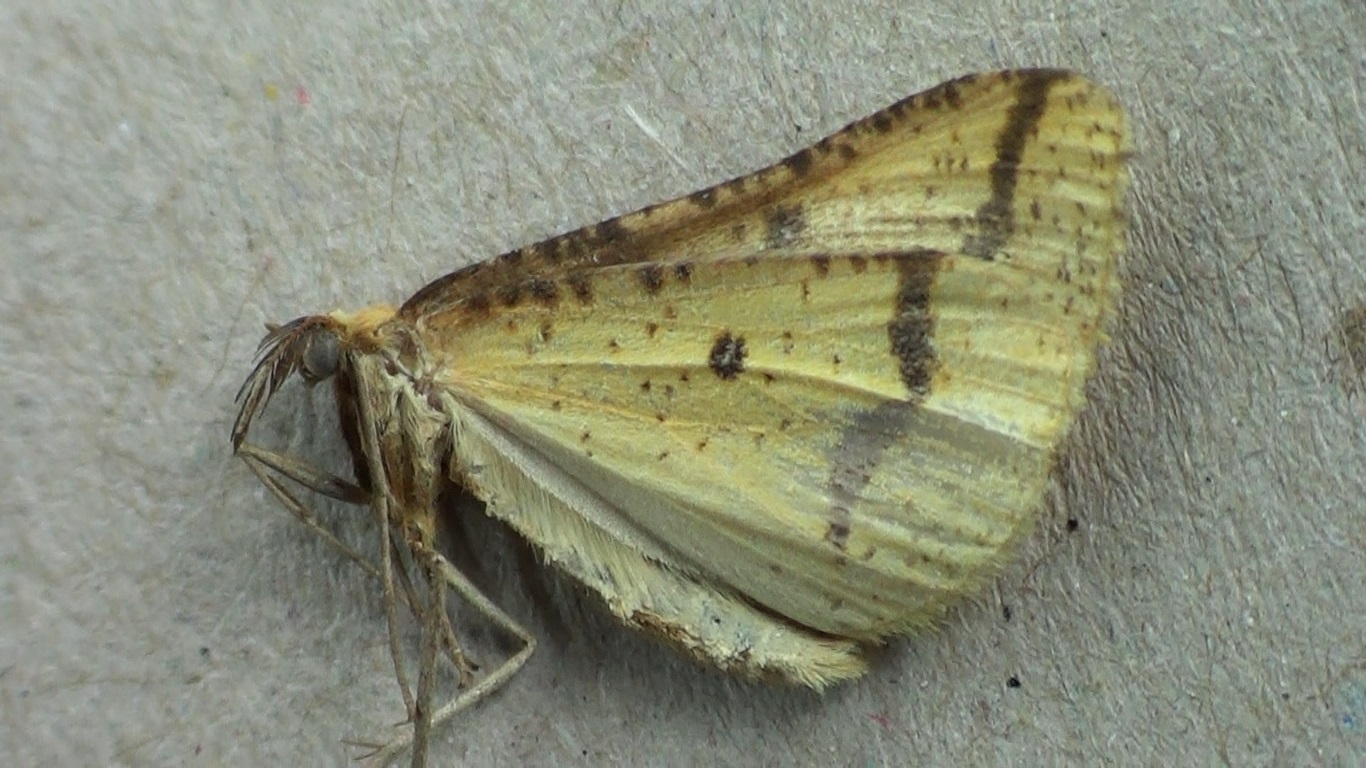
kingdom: Animalia
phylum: Arthropoda
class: Insecta
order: Lepidoptera
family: Geometridae
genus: Aspitates
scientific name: Aspitates ochrearia
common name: Yellow belle
